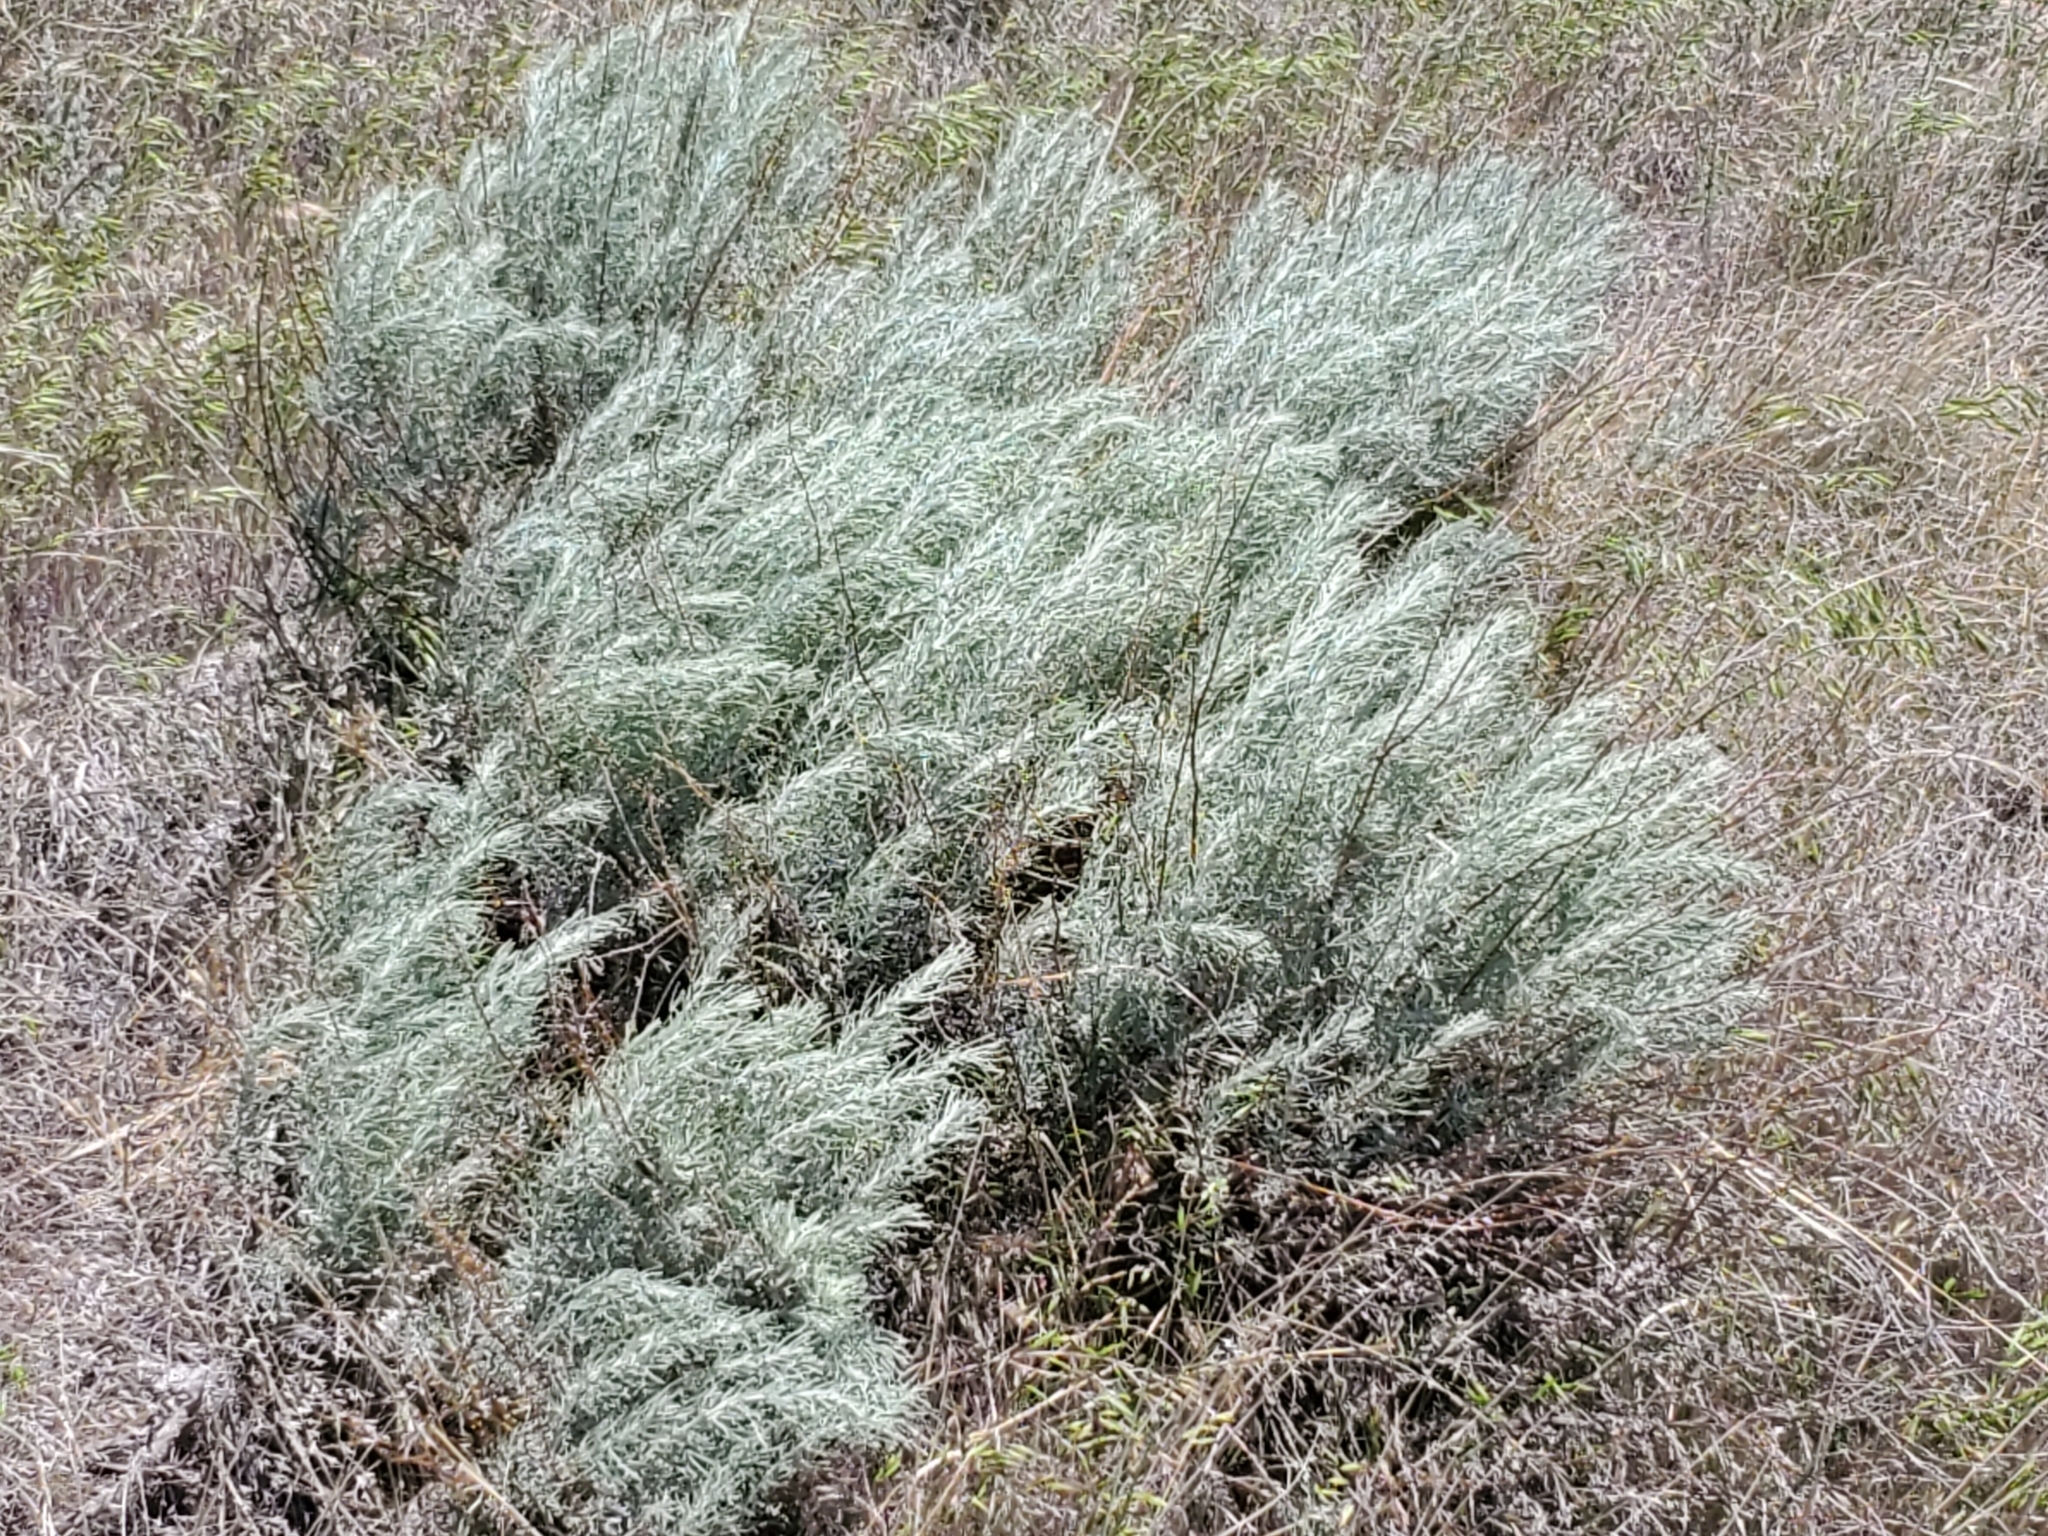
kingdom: Plantae
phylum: Tracheophyta
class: Magnoliopsida
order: Asterales
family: Asteraceae
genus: Artemisia
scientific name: Artemisia filifolia
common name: Sand-sage
